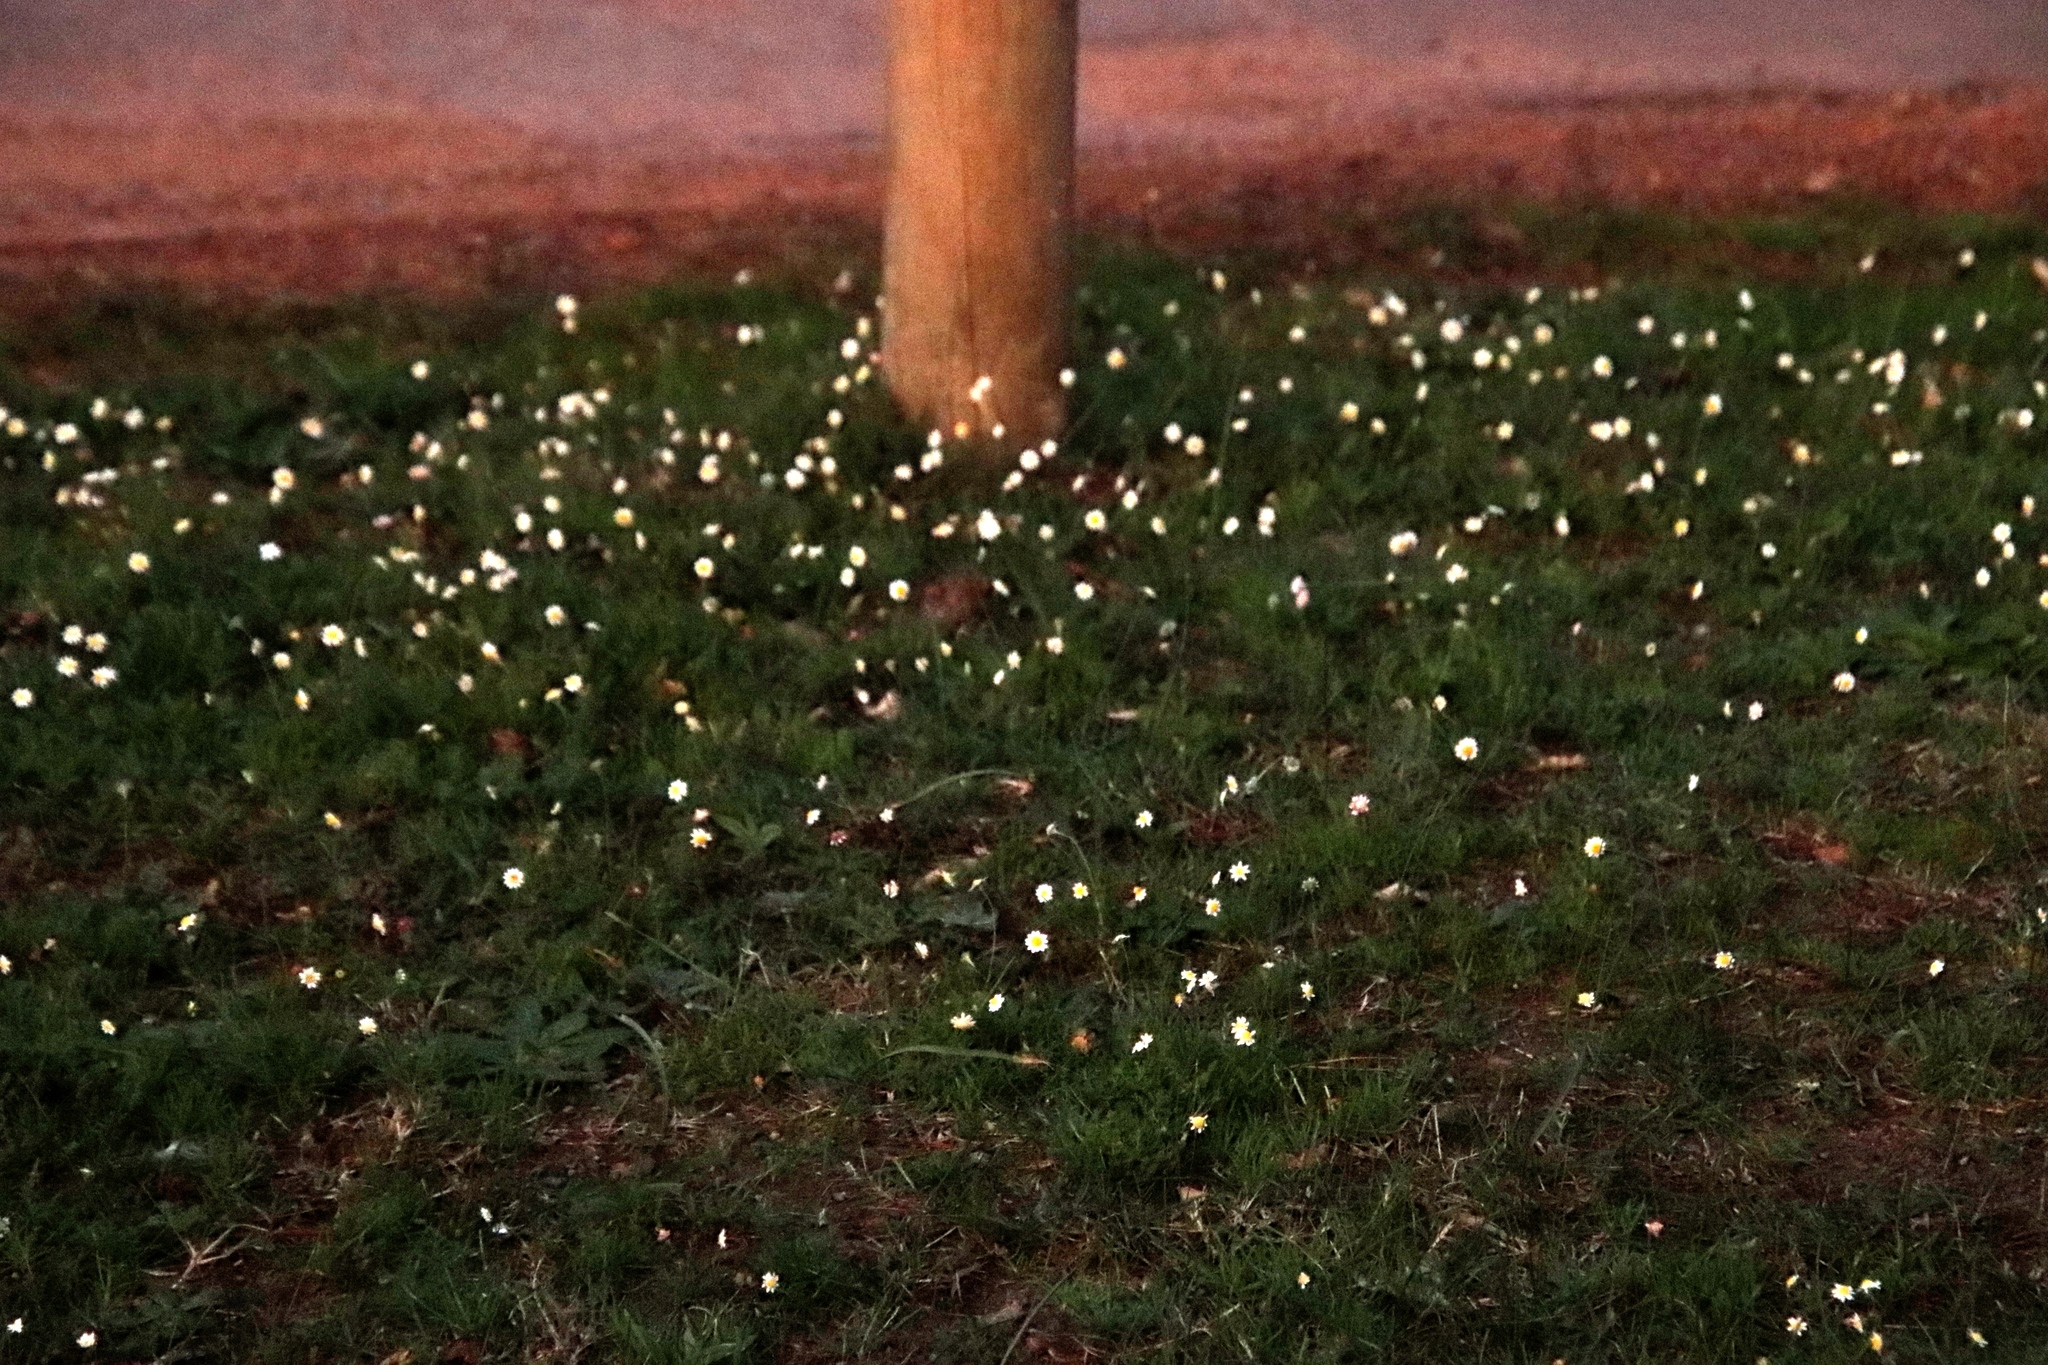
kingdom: Plantae
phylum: Tracheophyta
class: Magnoliopsida
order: Asterales
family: Asteraceae
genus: Cotula
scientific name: Cotula turbinata
